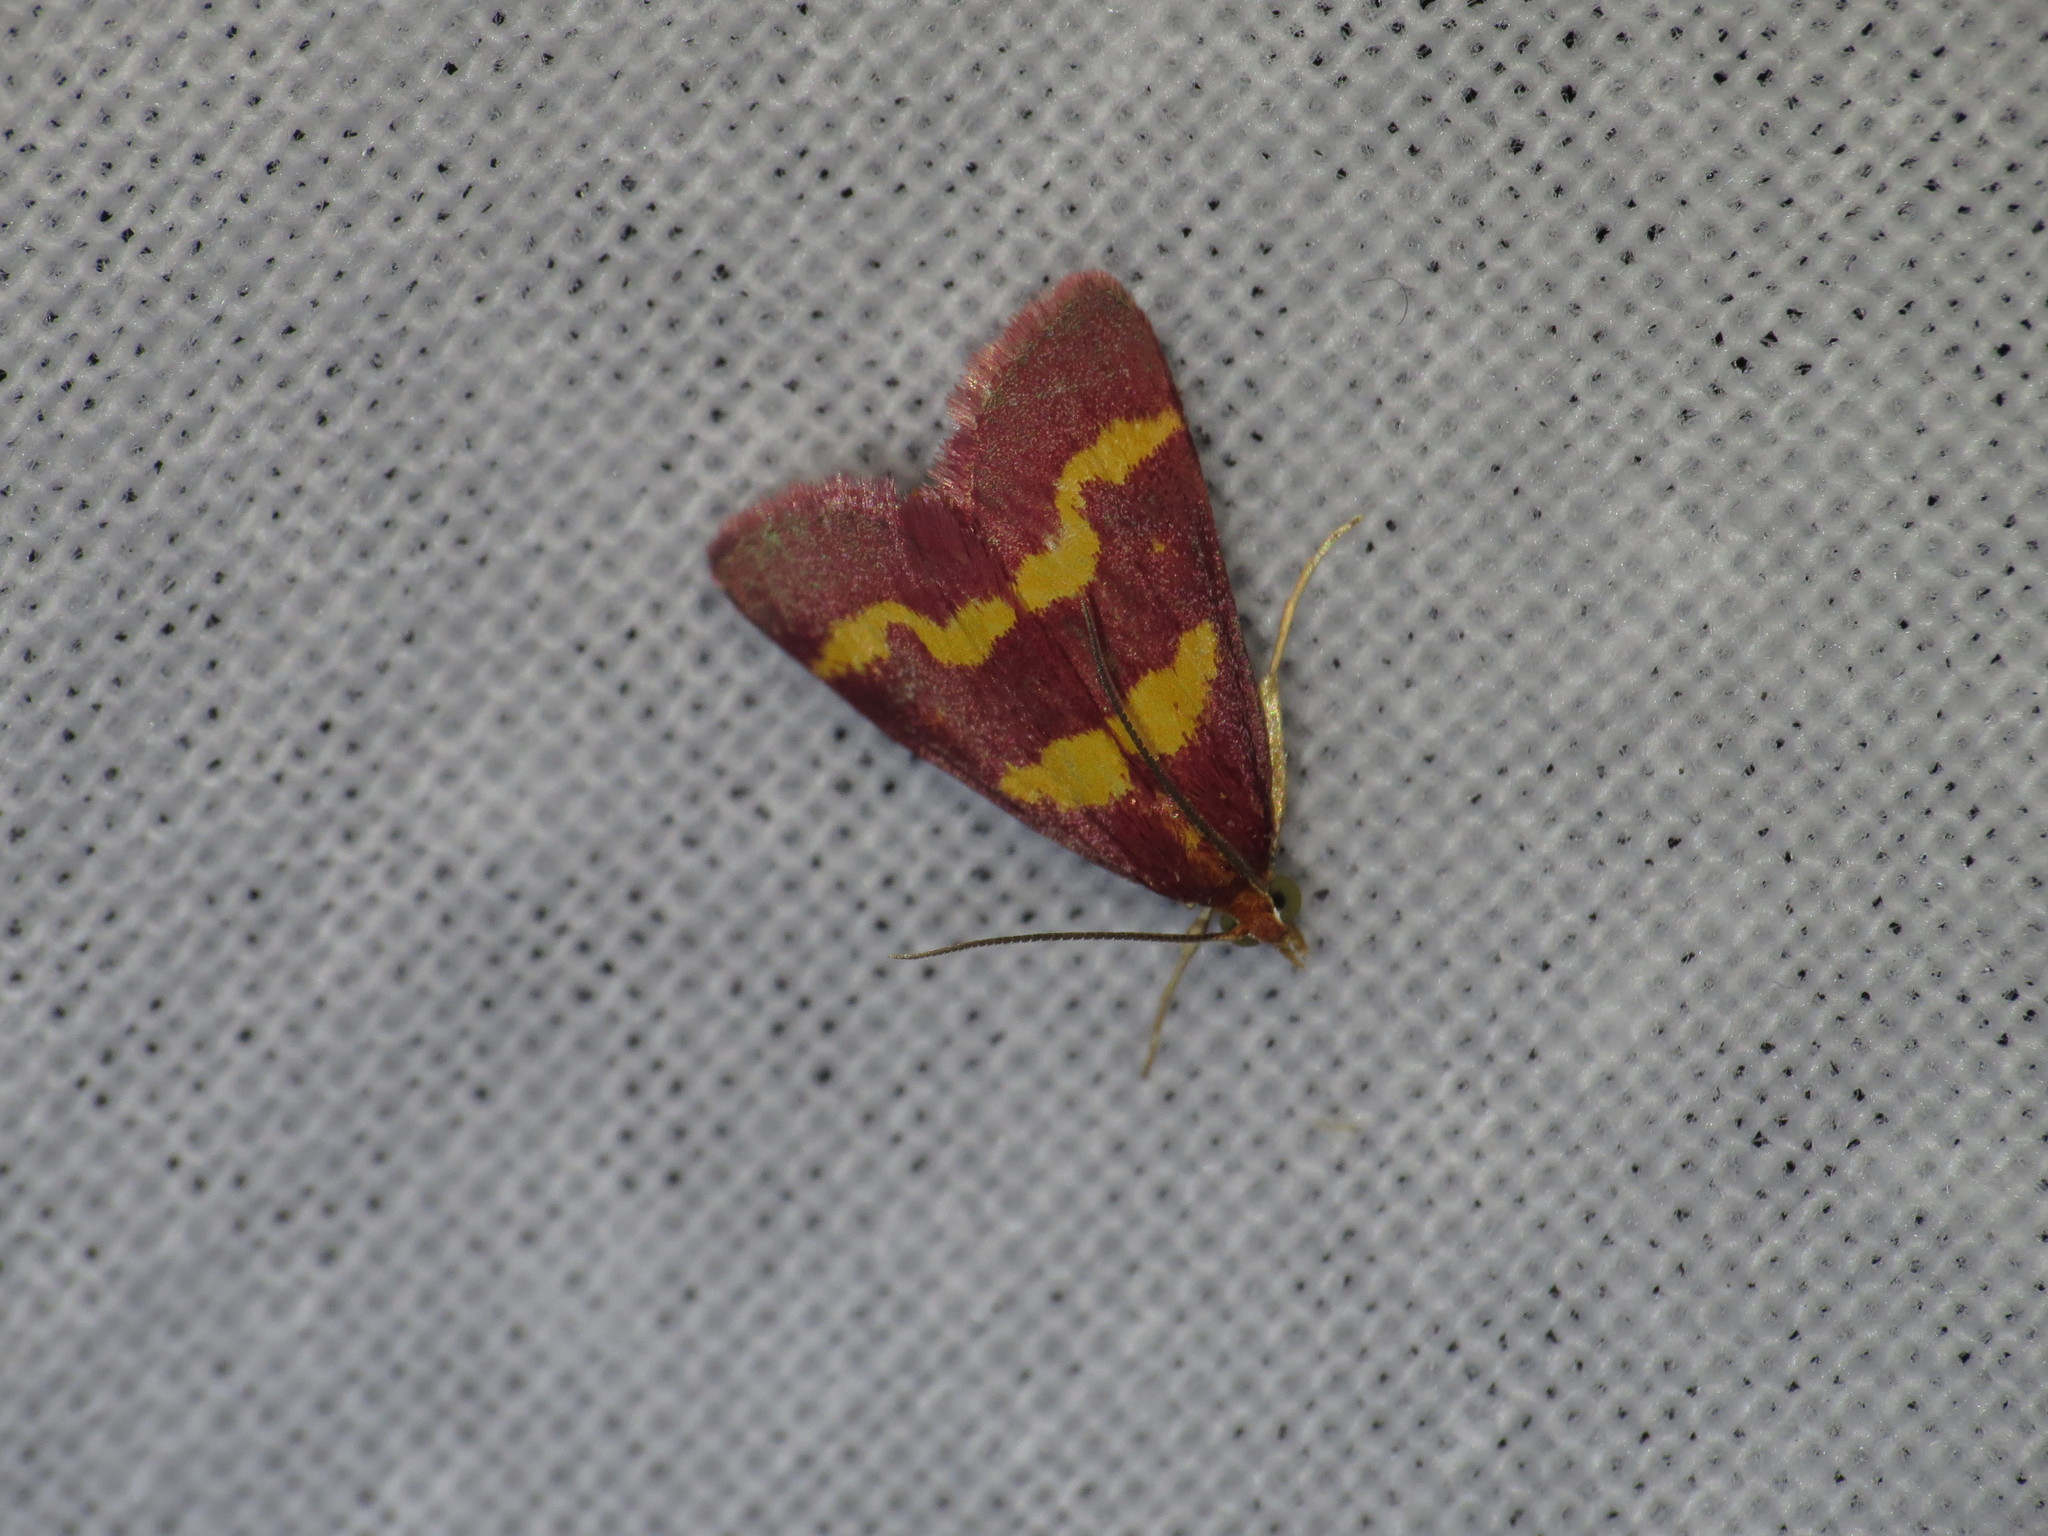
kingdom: Animalia
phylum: Arthropoda
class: Insecta
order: Lepidoptera
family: Crambidae
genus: Pyrausta
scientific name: Pyrausta tyralis
